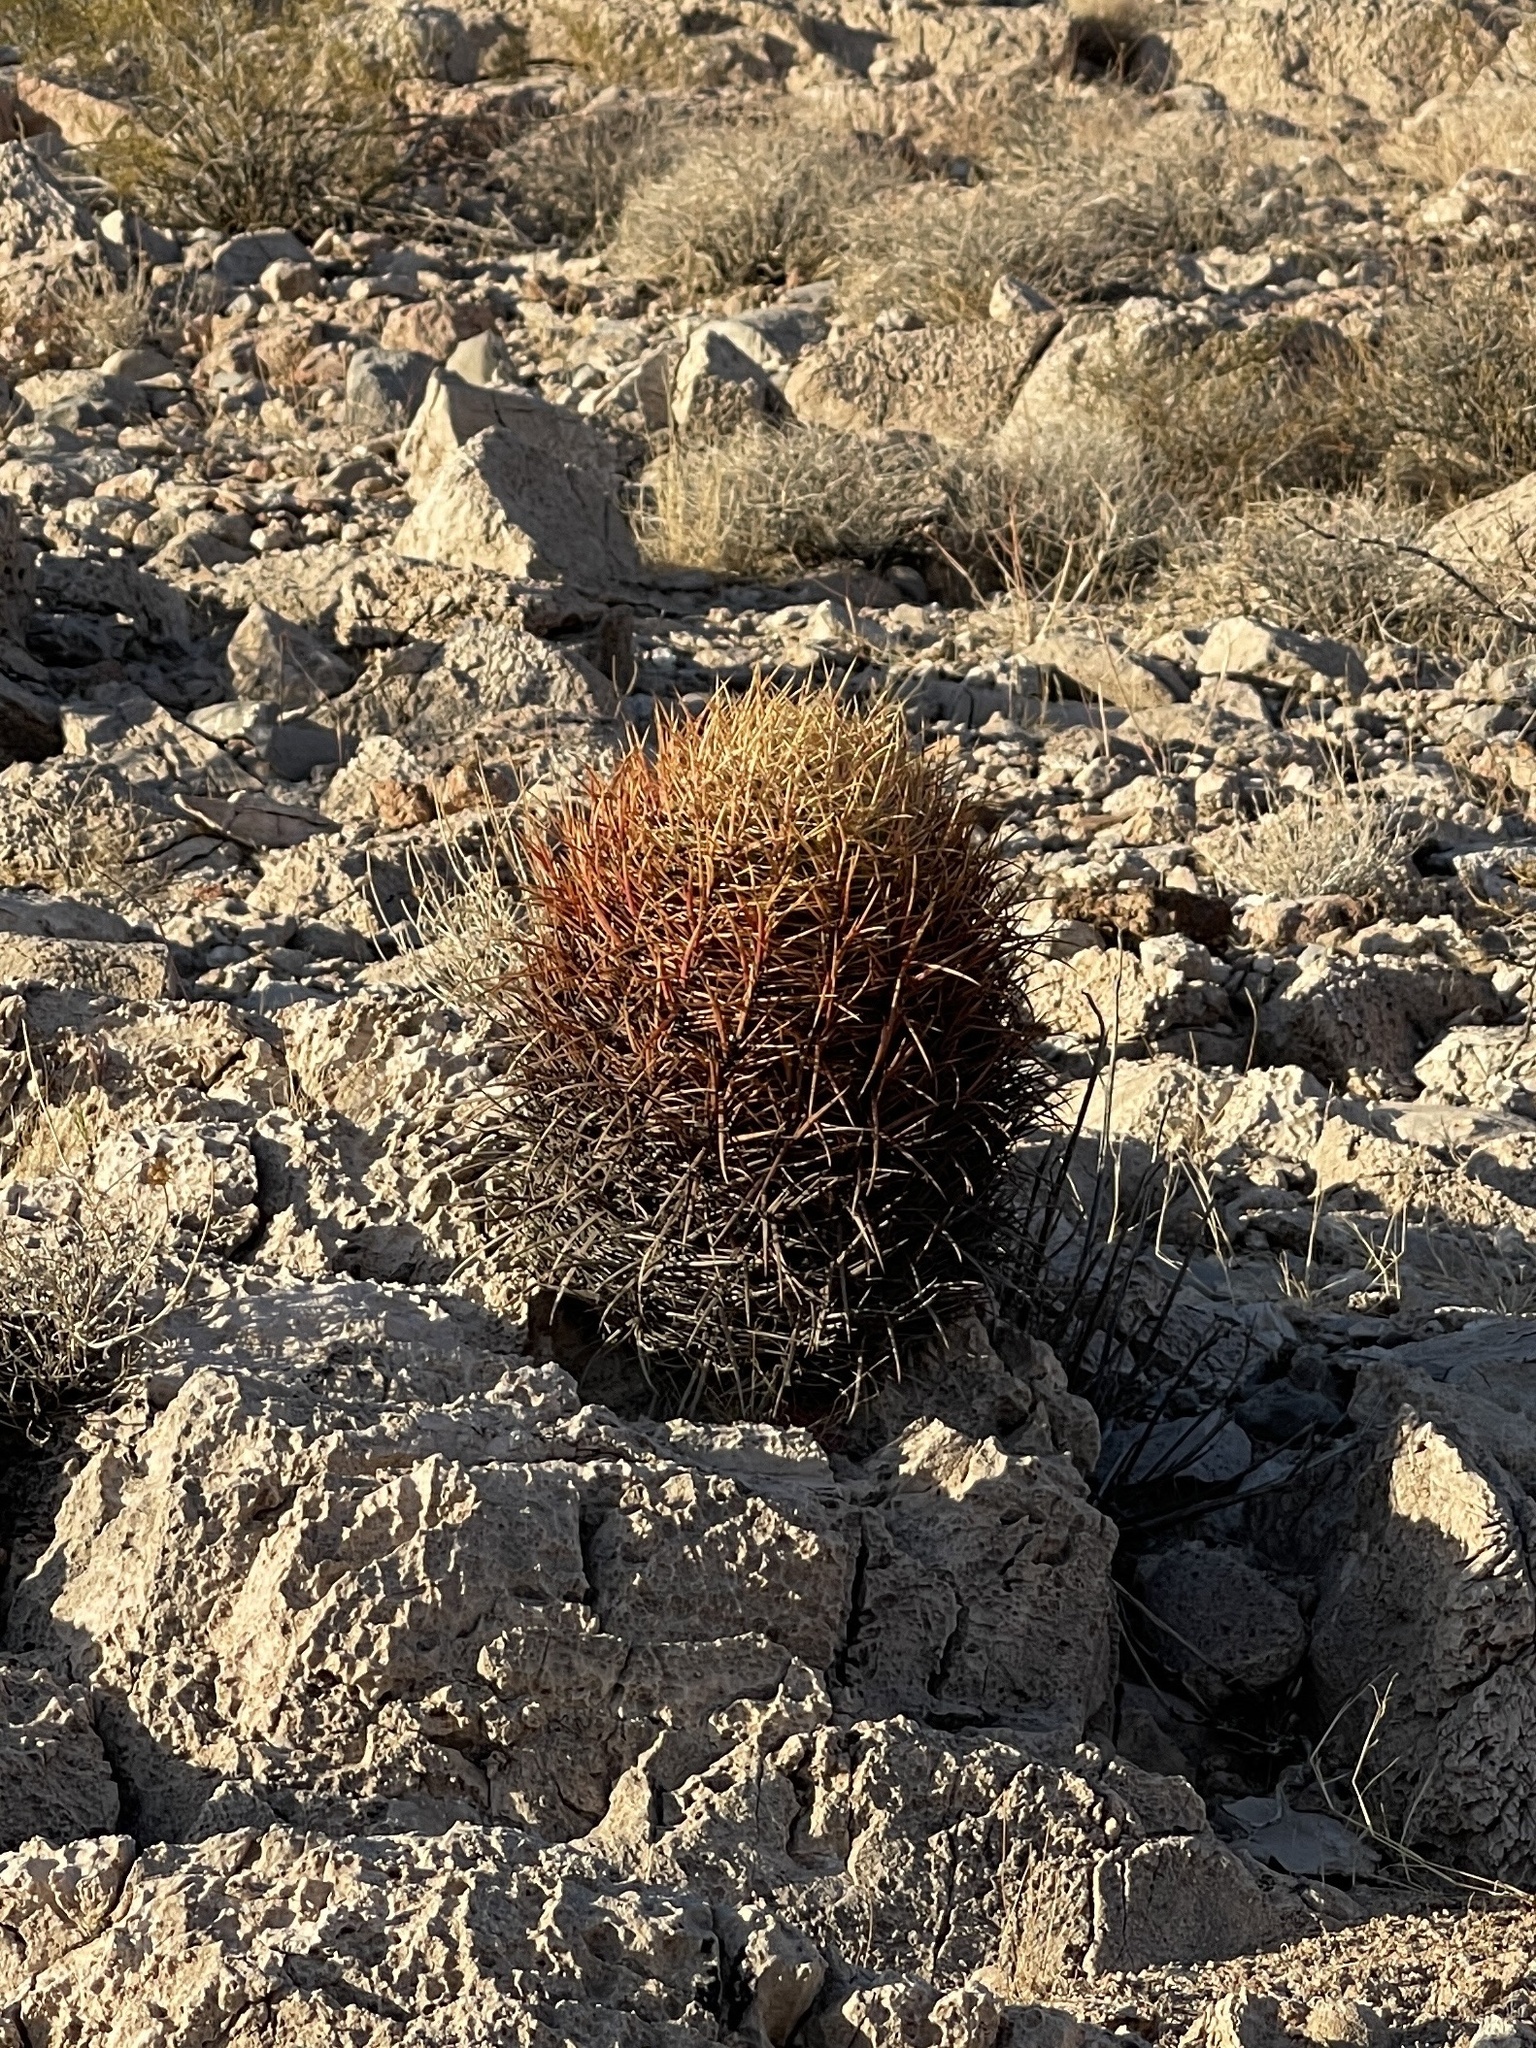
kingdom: Plantae
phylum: Tracheophyta
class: Magnoliopsida
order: Caryophyllales
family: Cactaceae
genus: Ferocactus
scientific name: Ferocactus cylindraceus
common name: California barrel cactus
